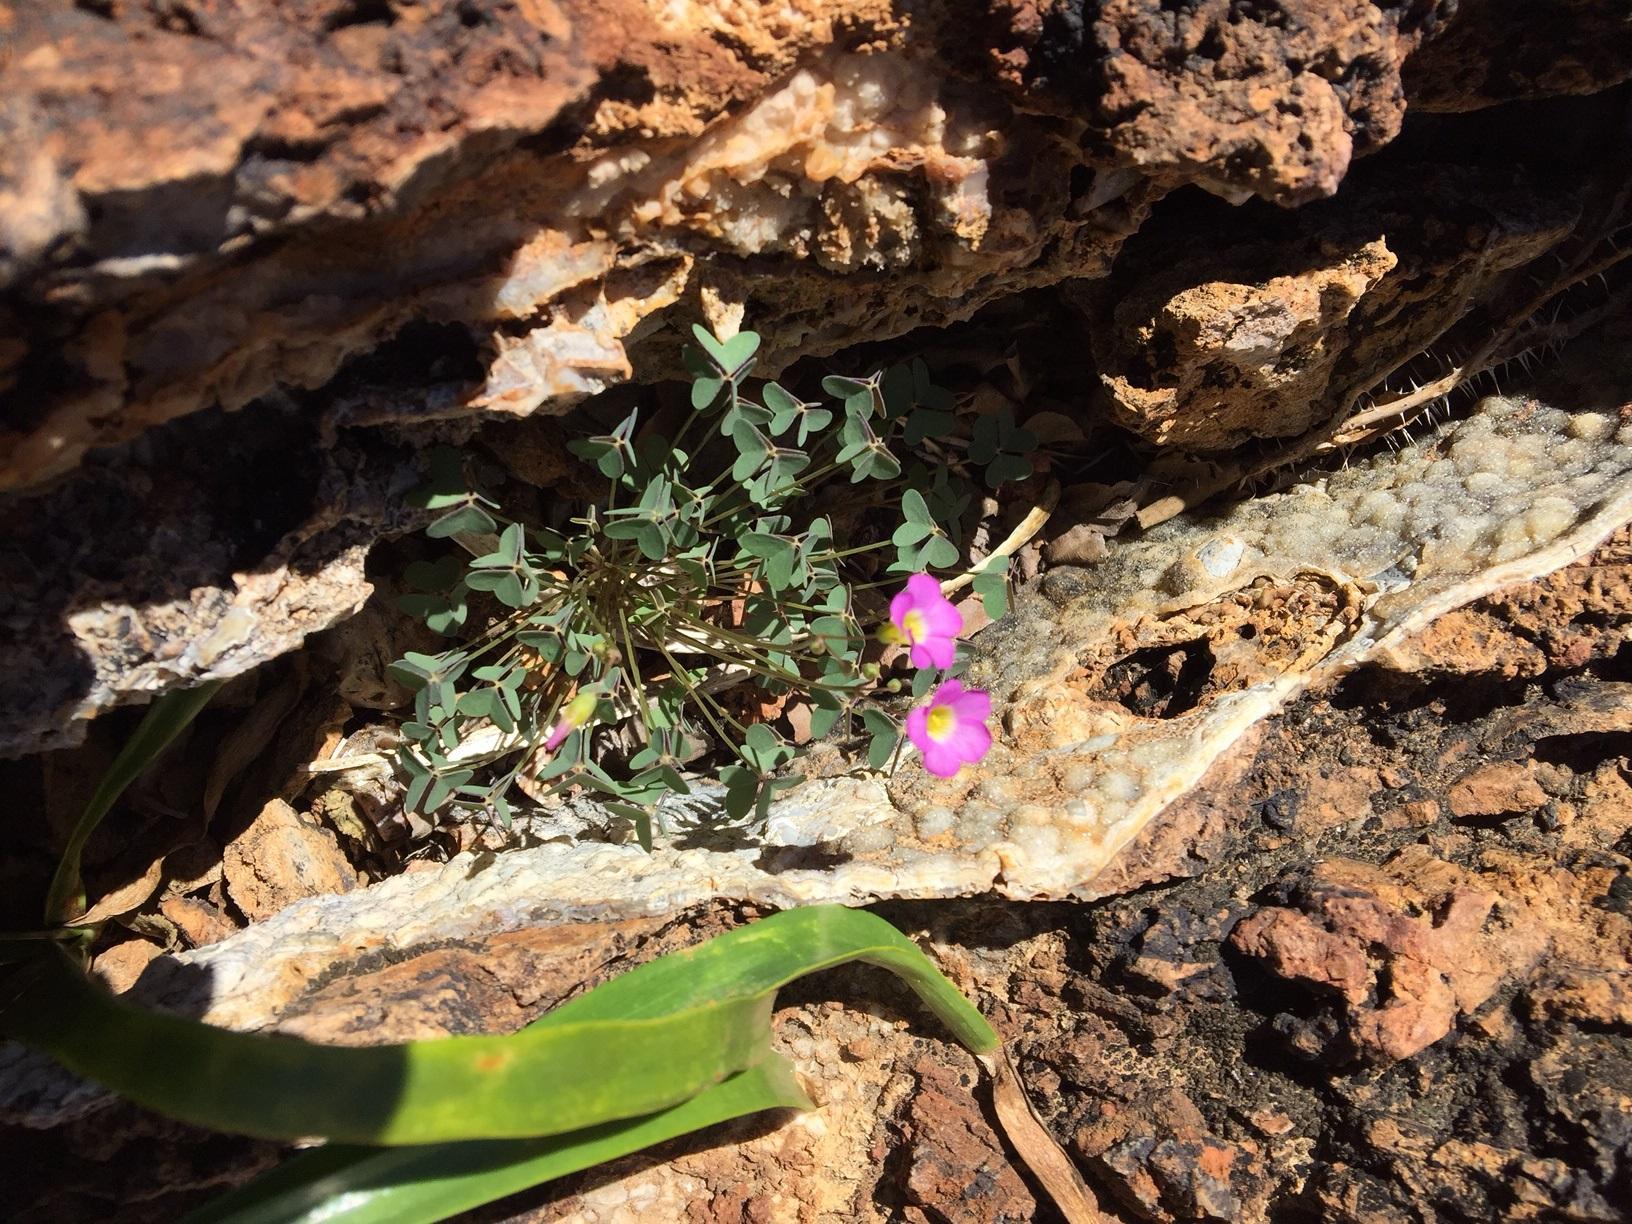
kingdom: Plantae
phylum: Tracheophyta
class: Magnoliopsida
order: Oxalidales
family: Oxalidaceae
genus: Oxalis
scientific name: Oxalis purpurascens
